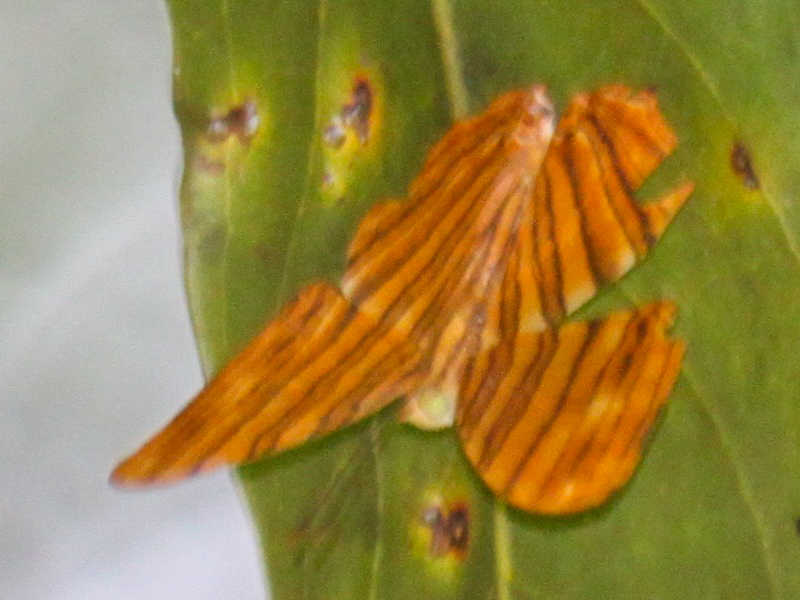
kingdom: Animalia
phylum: Arthropoda
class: Insecta
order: Lepidoptera
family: Nymphalidae
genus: Chersonesia
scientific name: Chersonesia risa
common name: Common maplet
